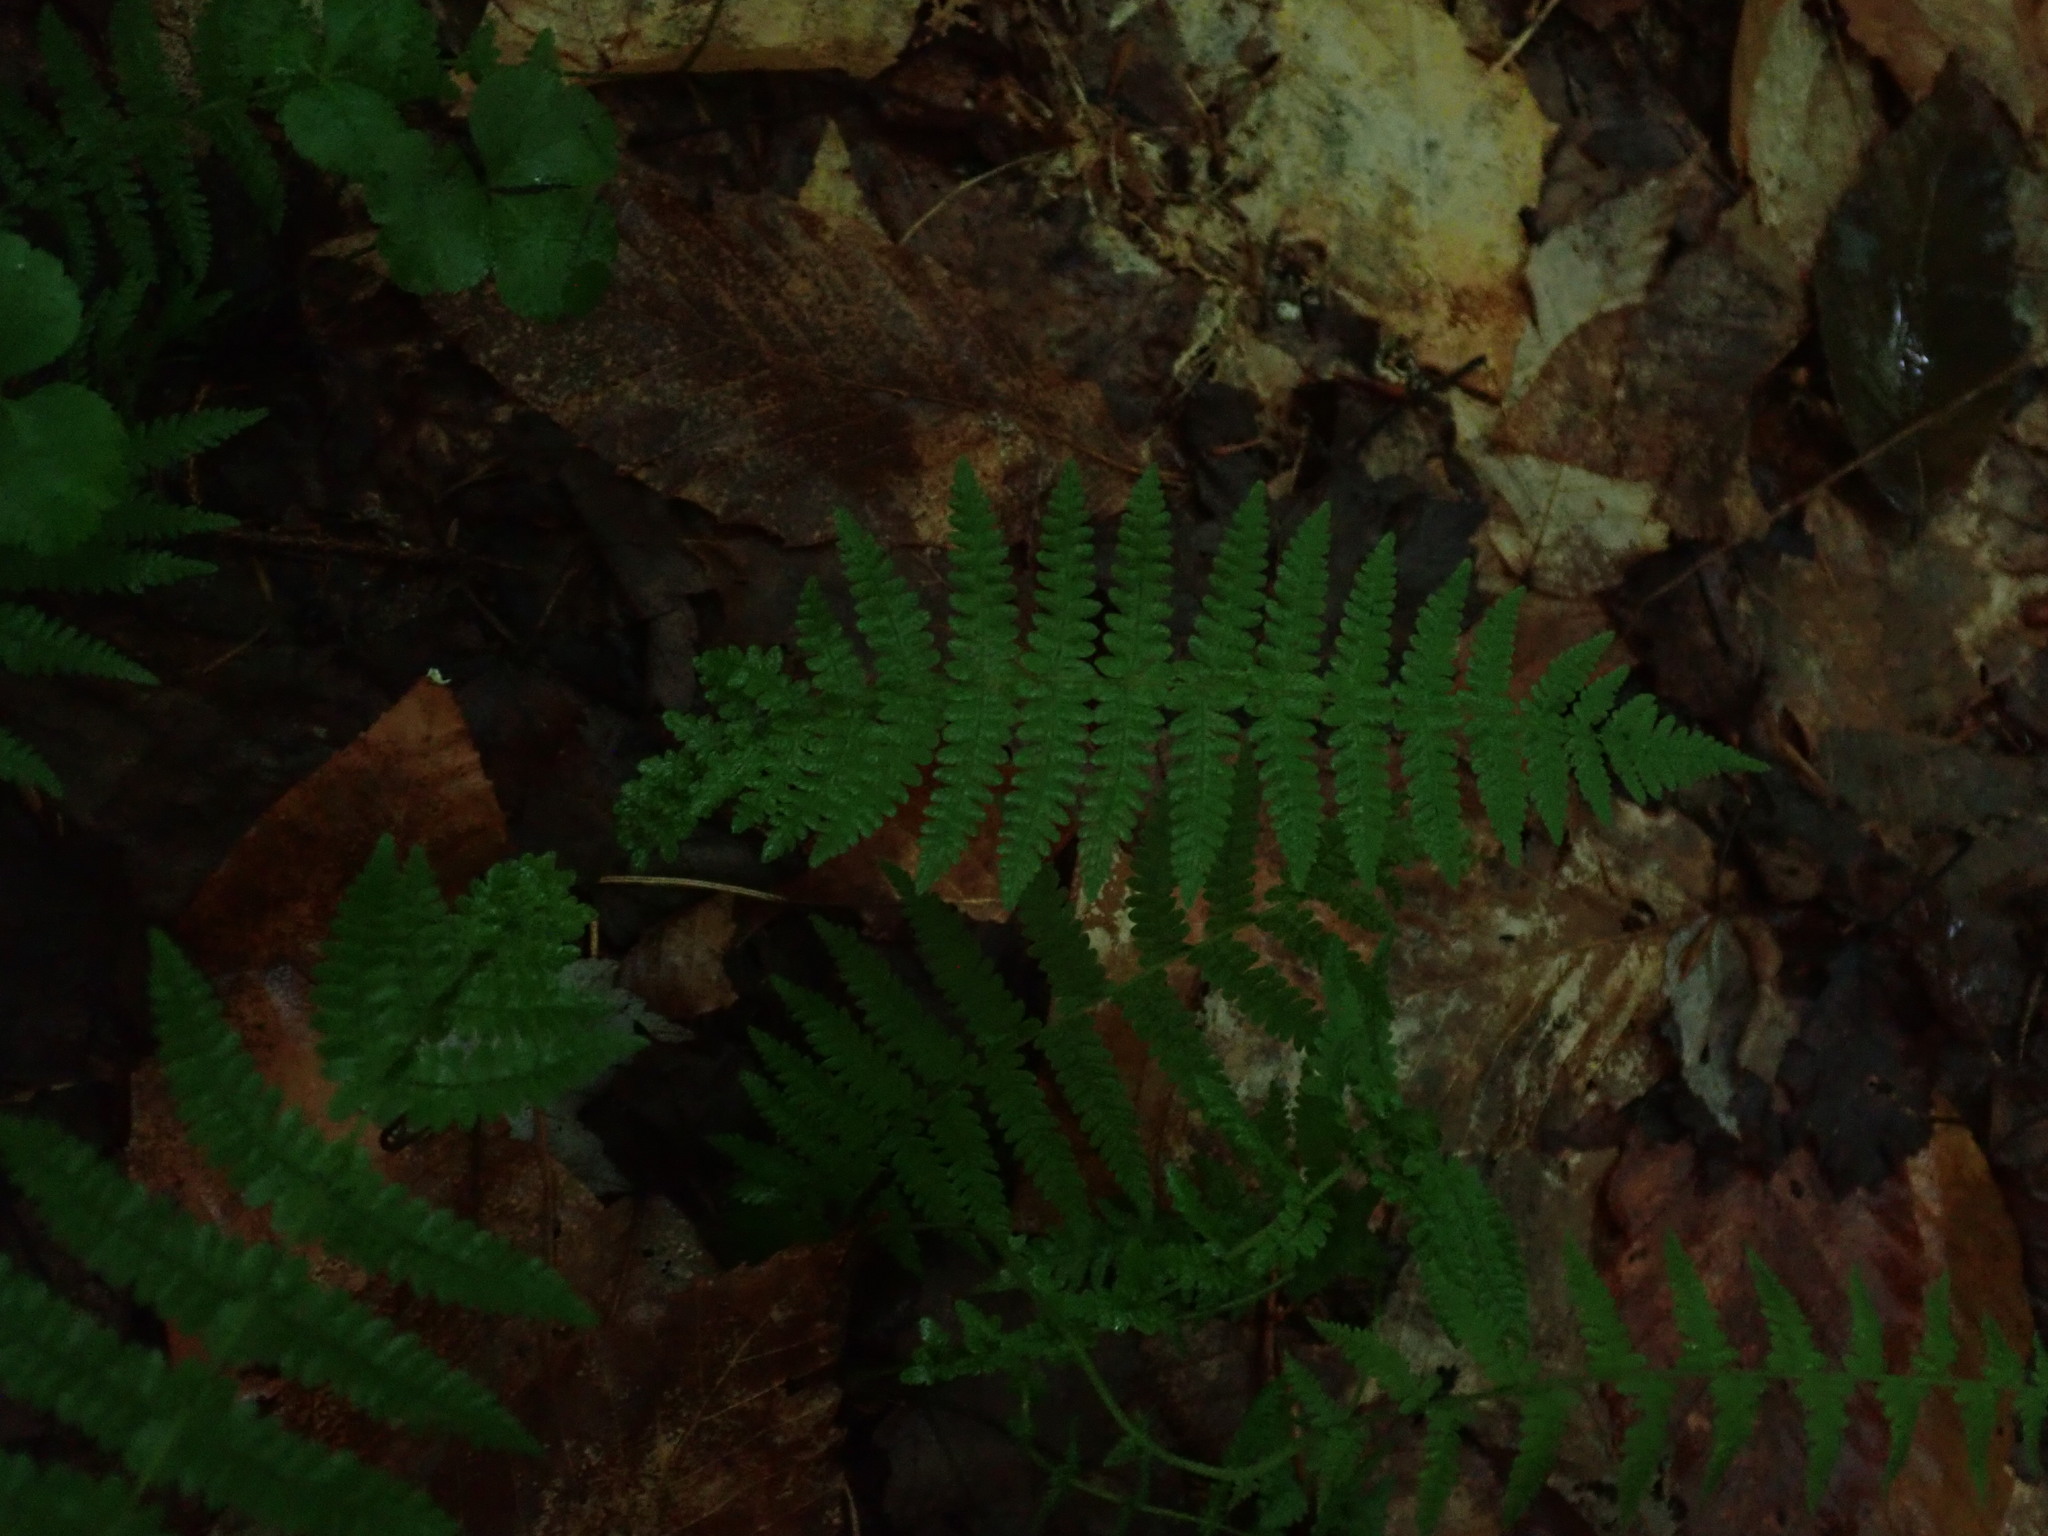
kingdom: Plantae
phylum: Tracheophyta
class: Polypodiopsida
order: Polypodiales
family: Thelypteridaceae
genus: Amauropelta
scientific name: Amauropelta noveboracensis
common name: New york fern
